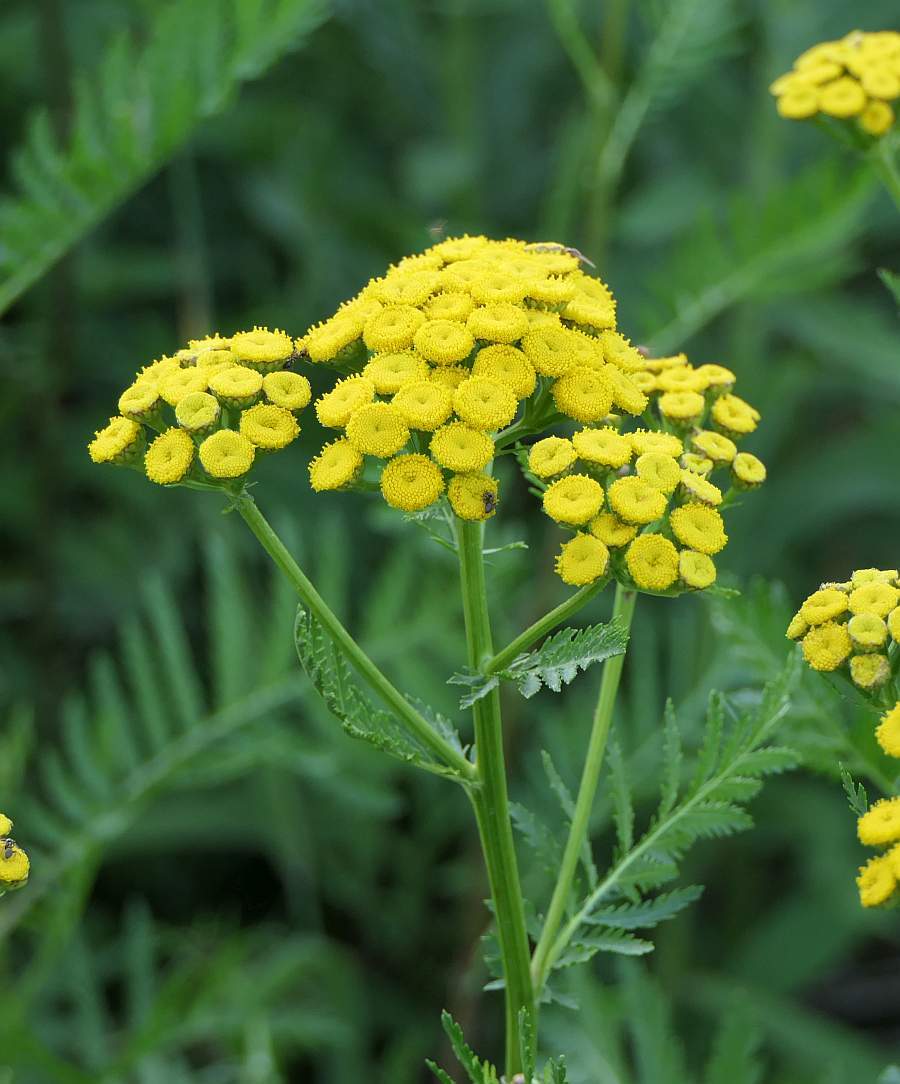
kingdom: Plantae
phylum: Tracheophyta
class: Magnoliopsida
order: Asterales
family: Asteraceae
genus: Tanacetum
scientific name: Tanacetum vulgare
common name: Common tansy
